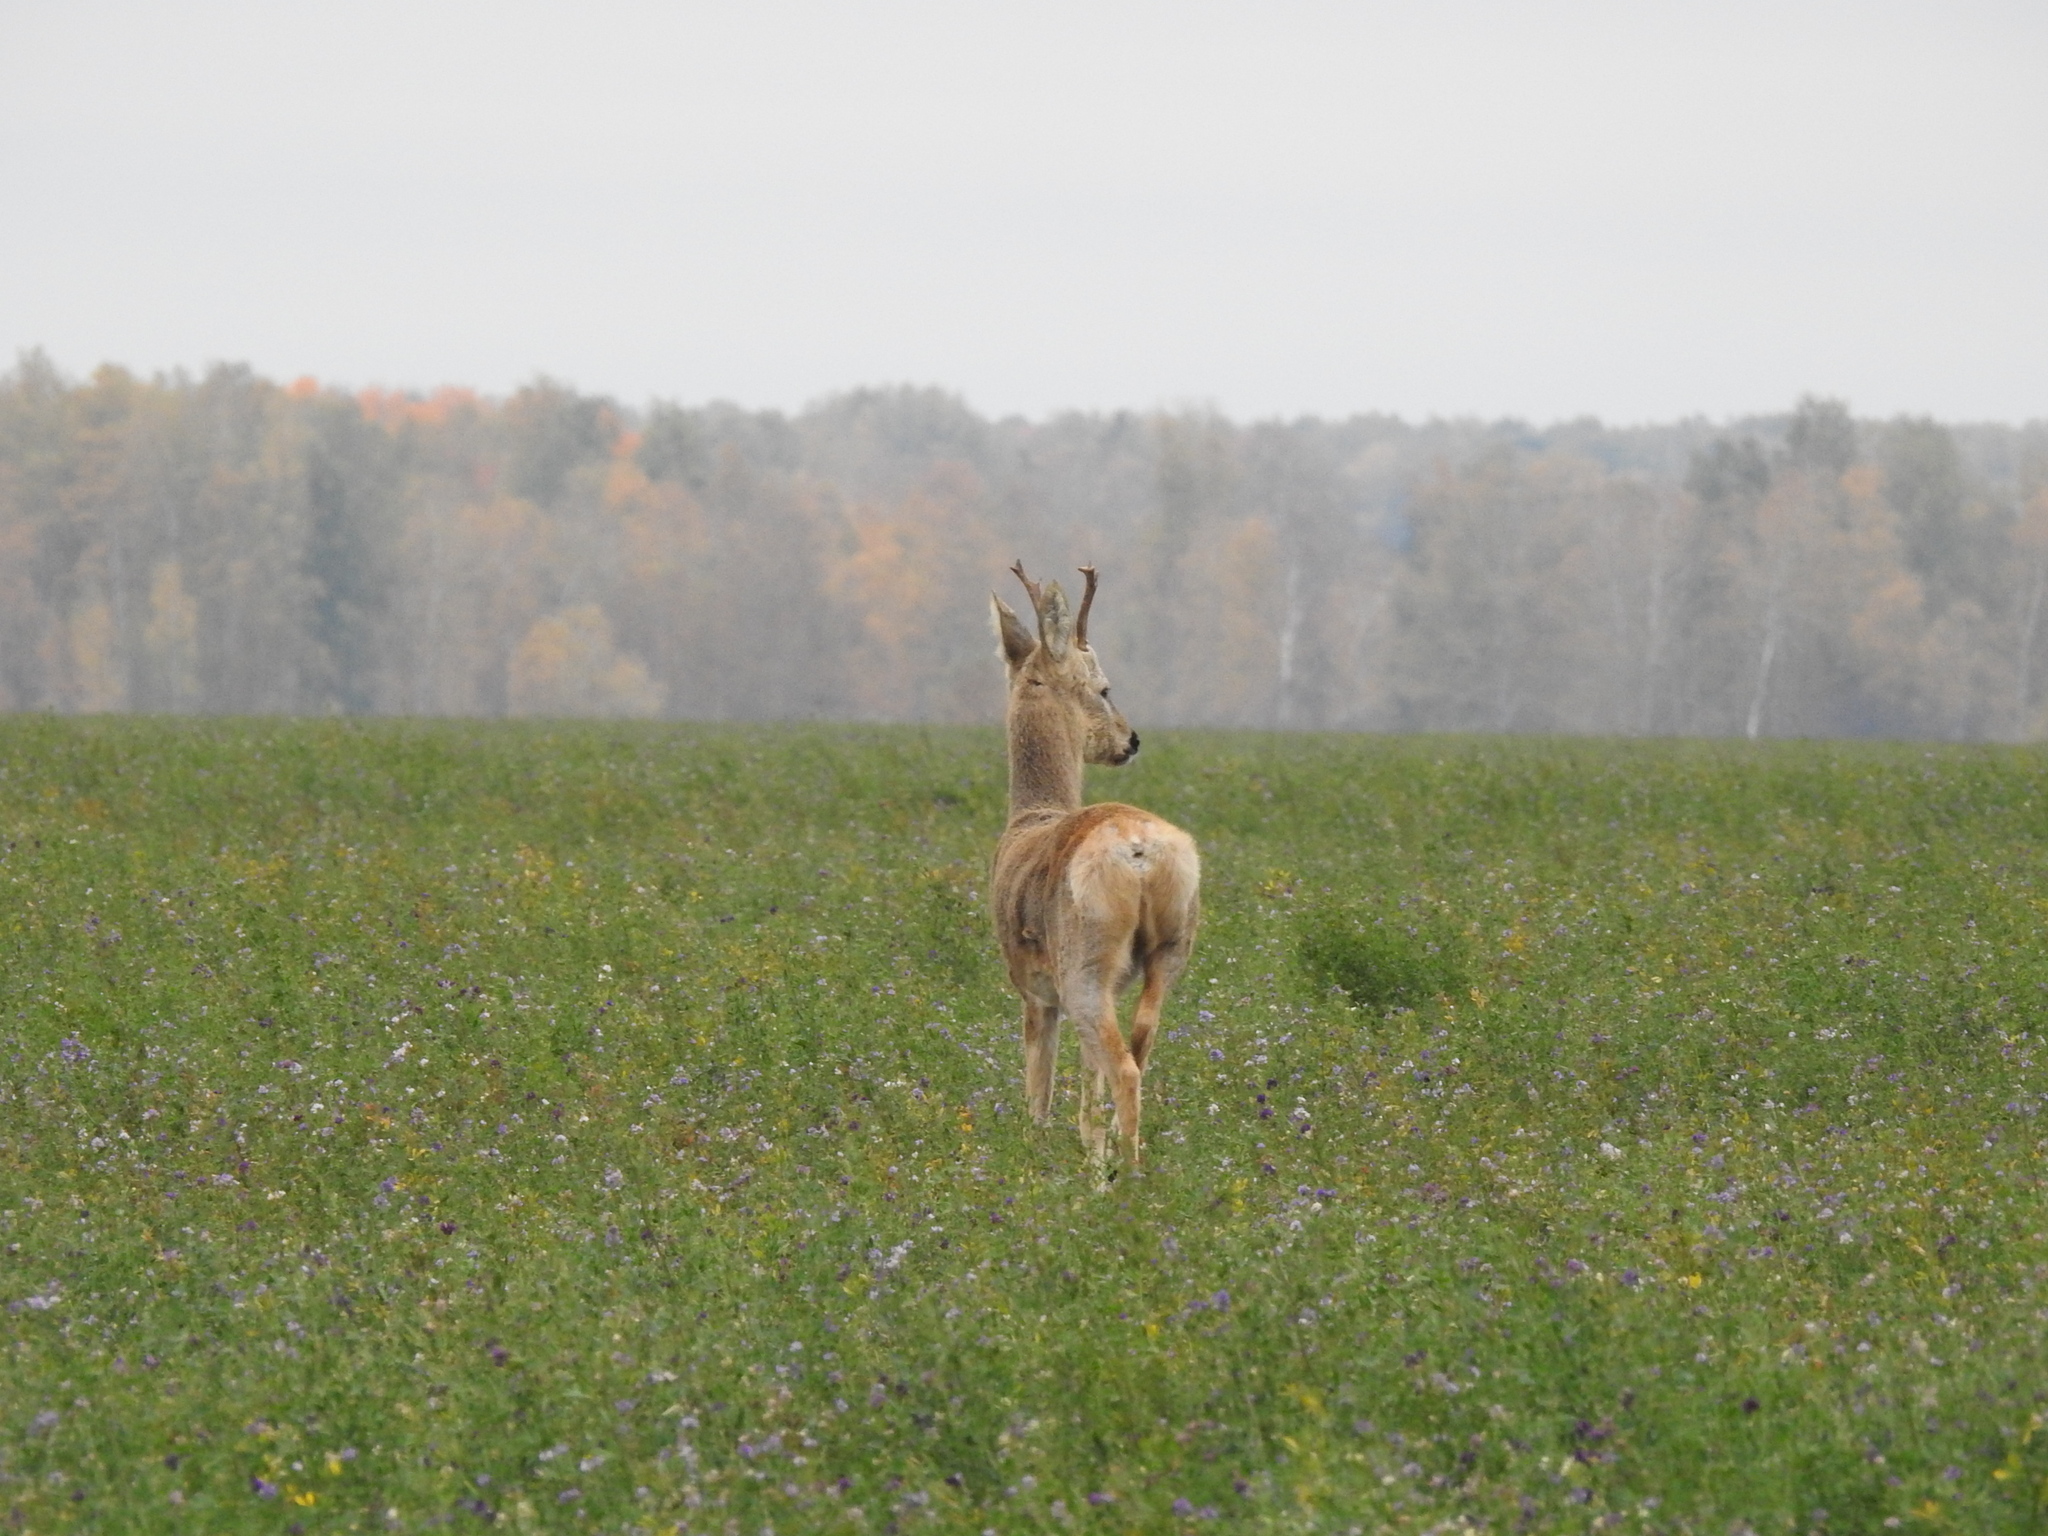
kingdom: Animalia
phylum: Chordata
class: Mammalia
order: Artiodactyla
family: Cervidae
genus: Capreolus
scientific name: Capreolus pygargus
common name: Siberian roe
